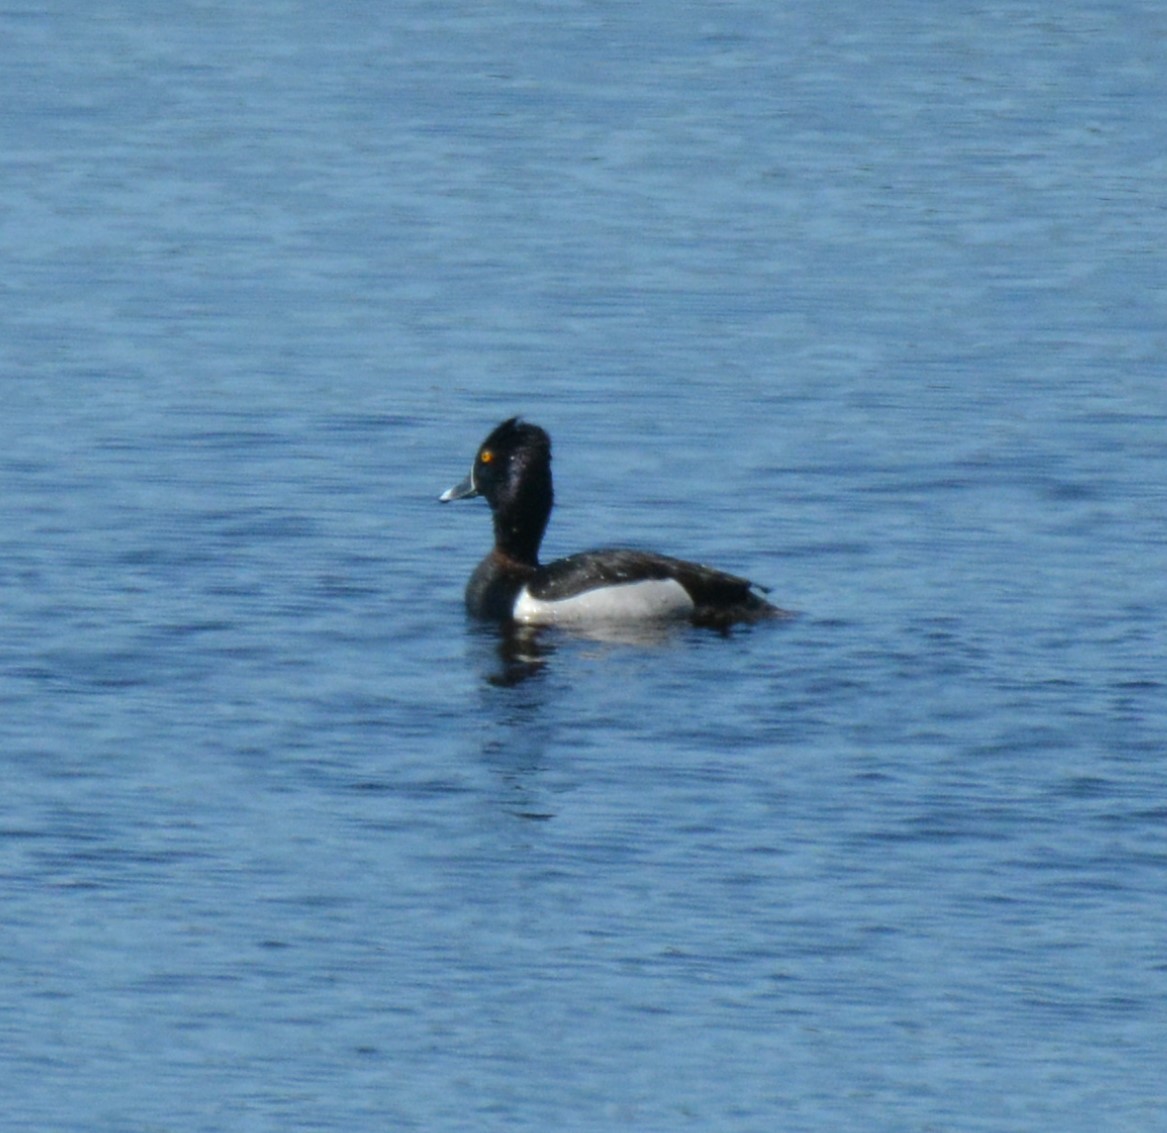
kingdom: Animalia
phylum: Chordata
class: Aves
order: Anseriformes
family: Anatidae
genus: Aythya
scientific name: Aythya collaris
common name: Ring-necked duck
